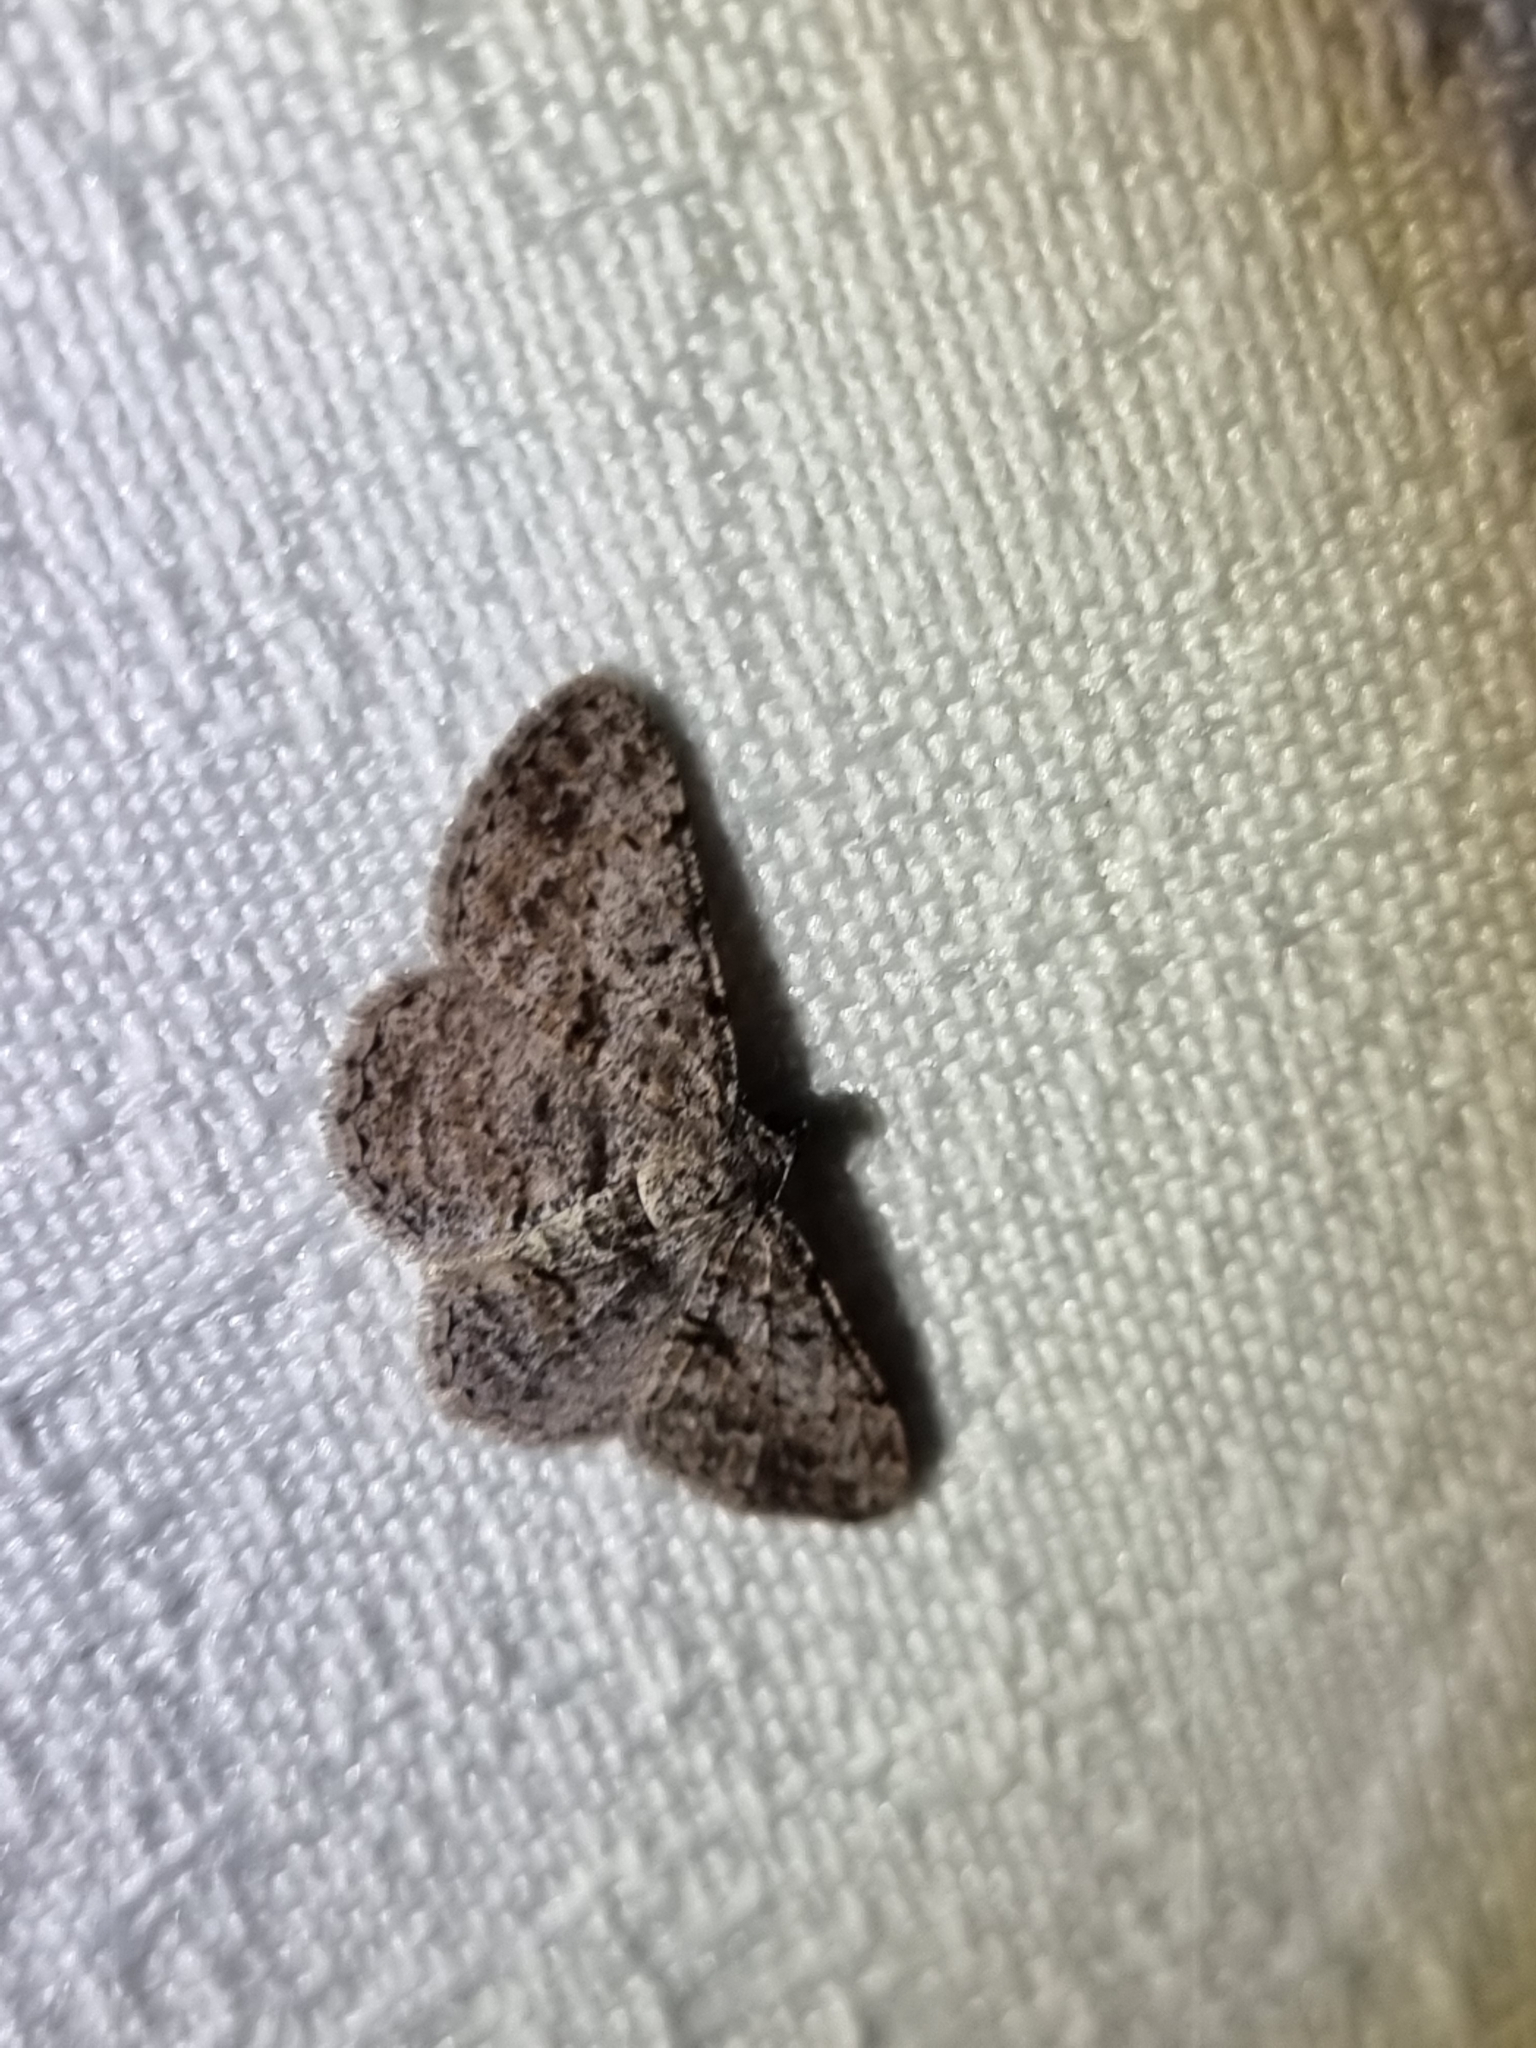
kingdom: Animalia
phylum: Arthropoda
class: Insecta
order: Lepidoptera
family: Geometridae
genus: Psilalcis
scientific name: Psilalcis isombra
